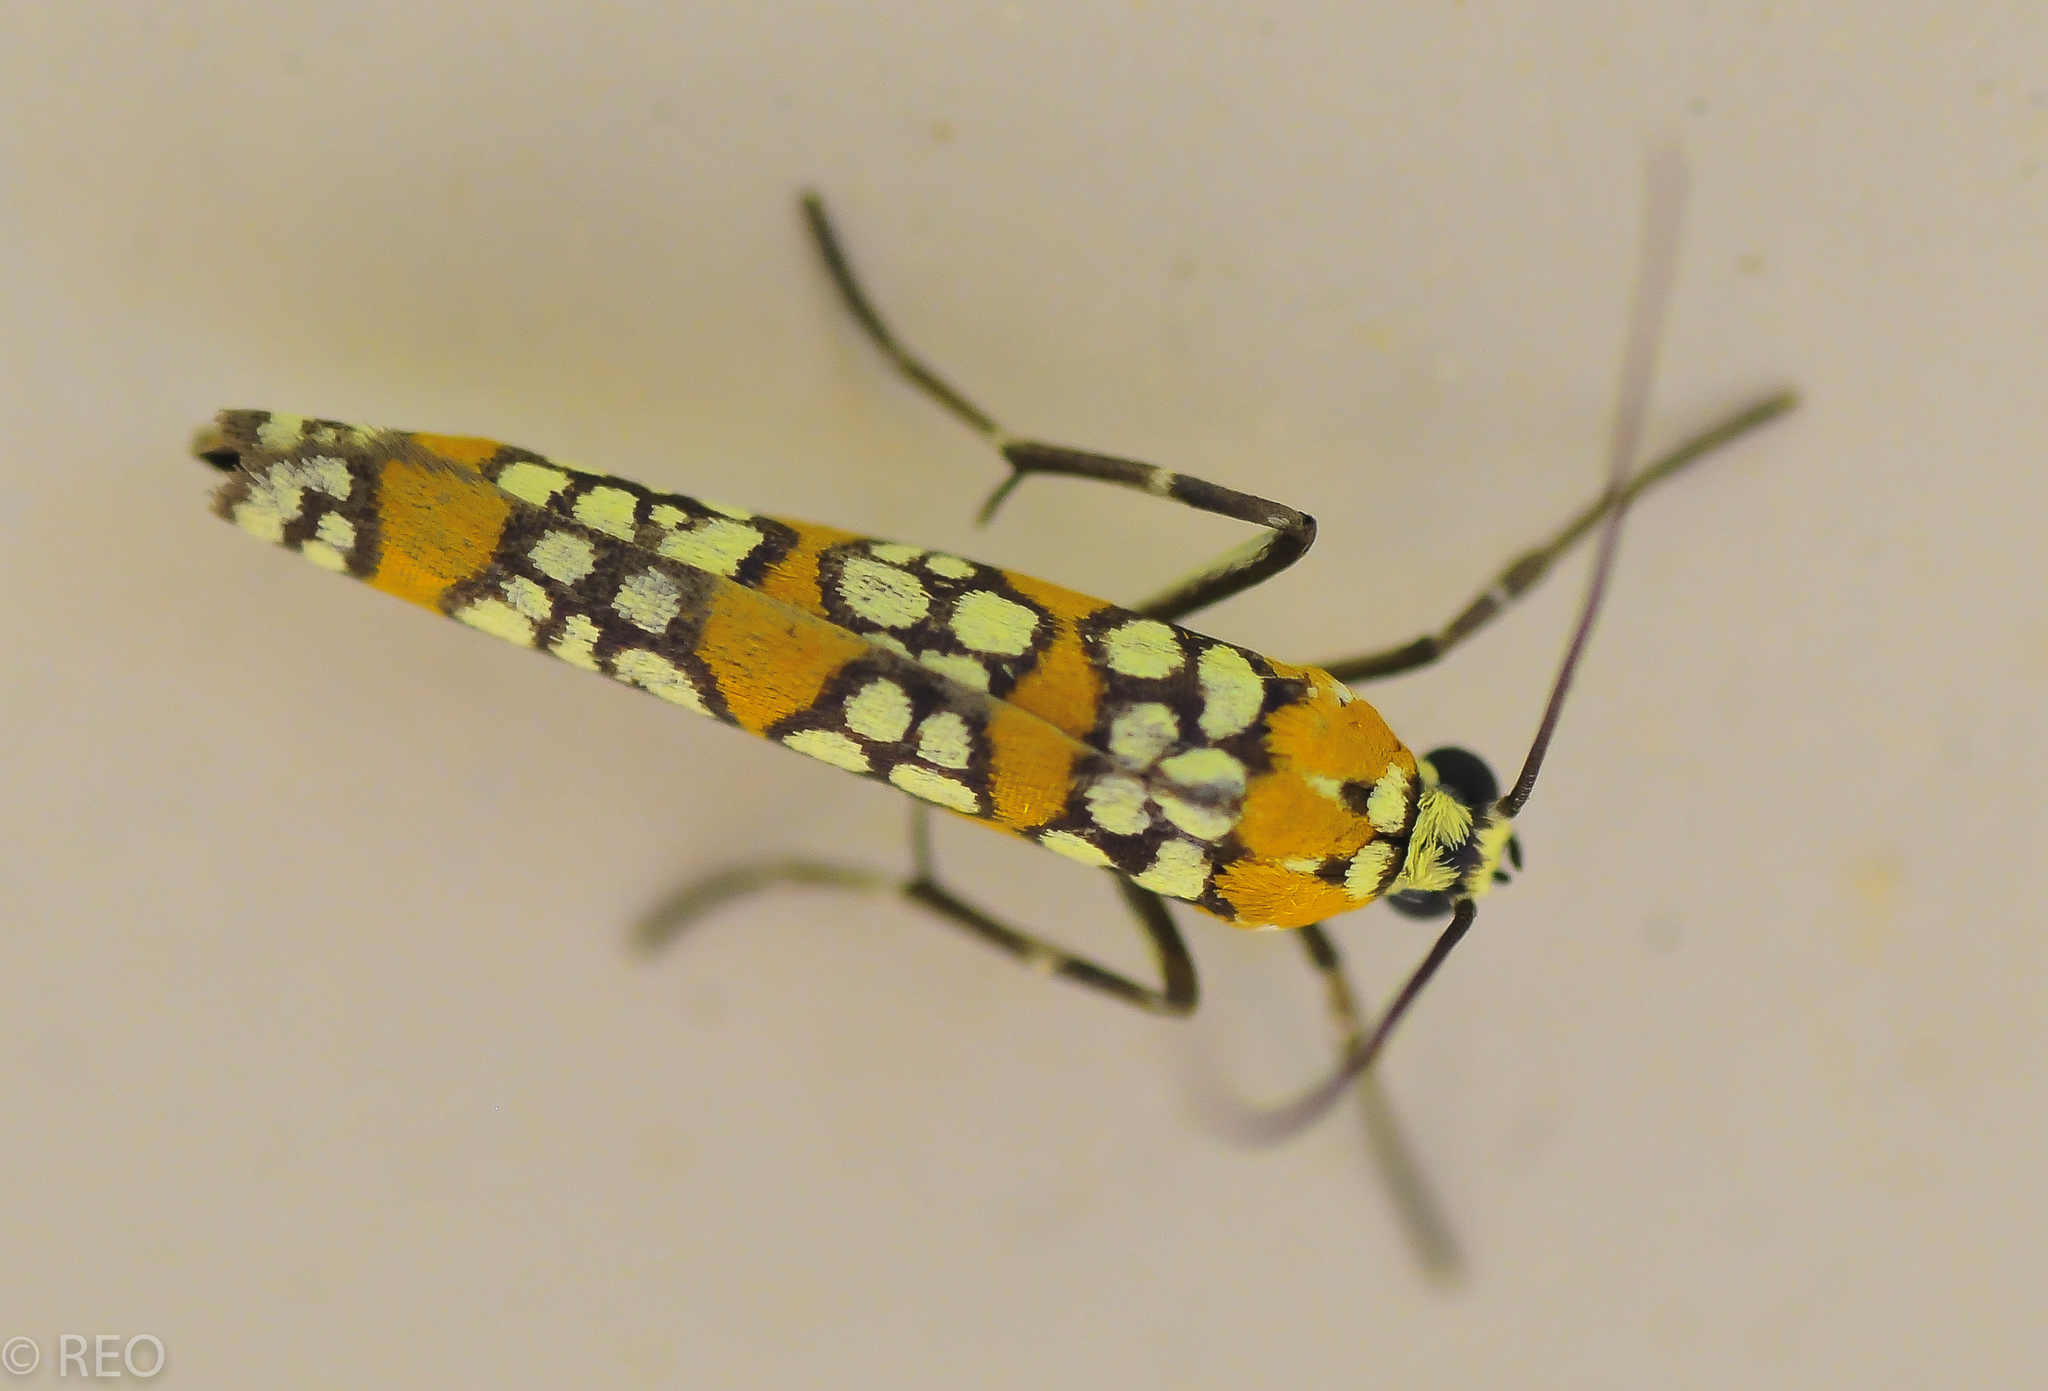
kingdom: Animalia
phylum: Arthropoda
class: Insecta
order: Lepidoptera
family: Attevidae
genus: Atteva
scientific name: Atteva punctella
